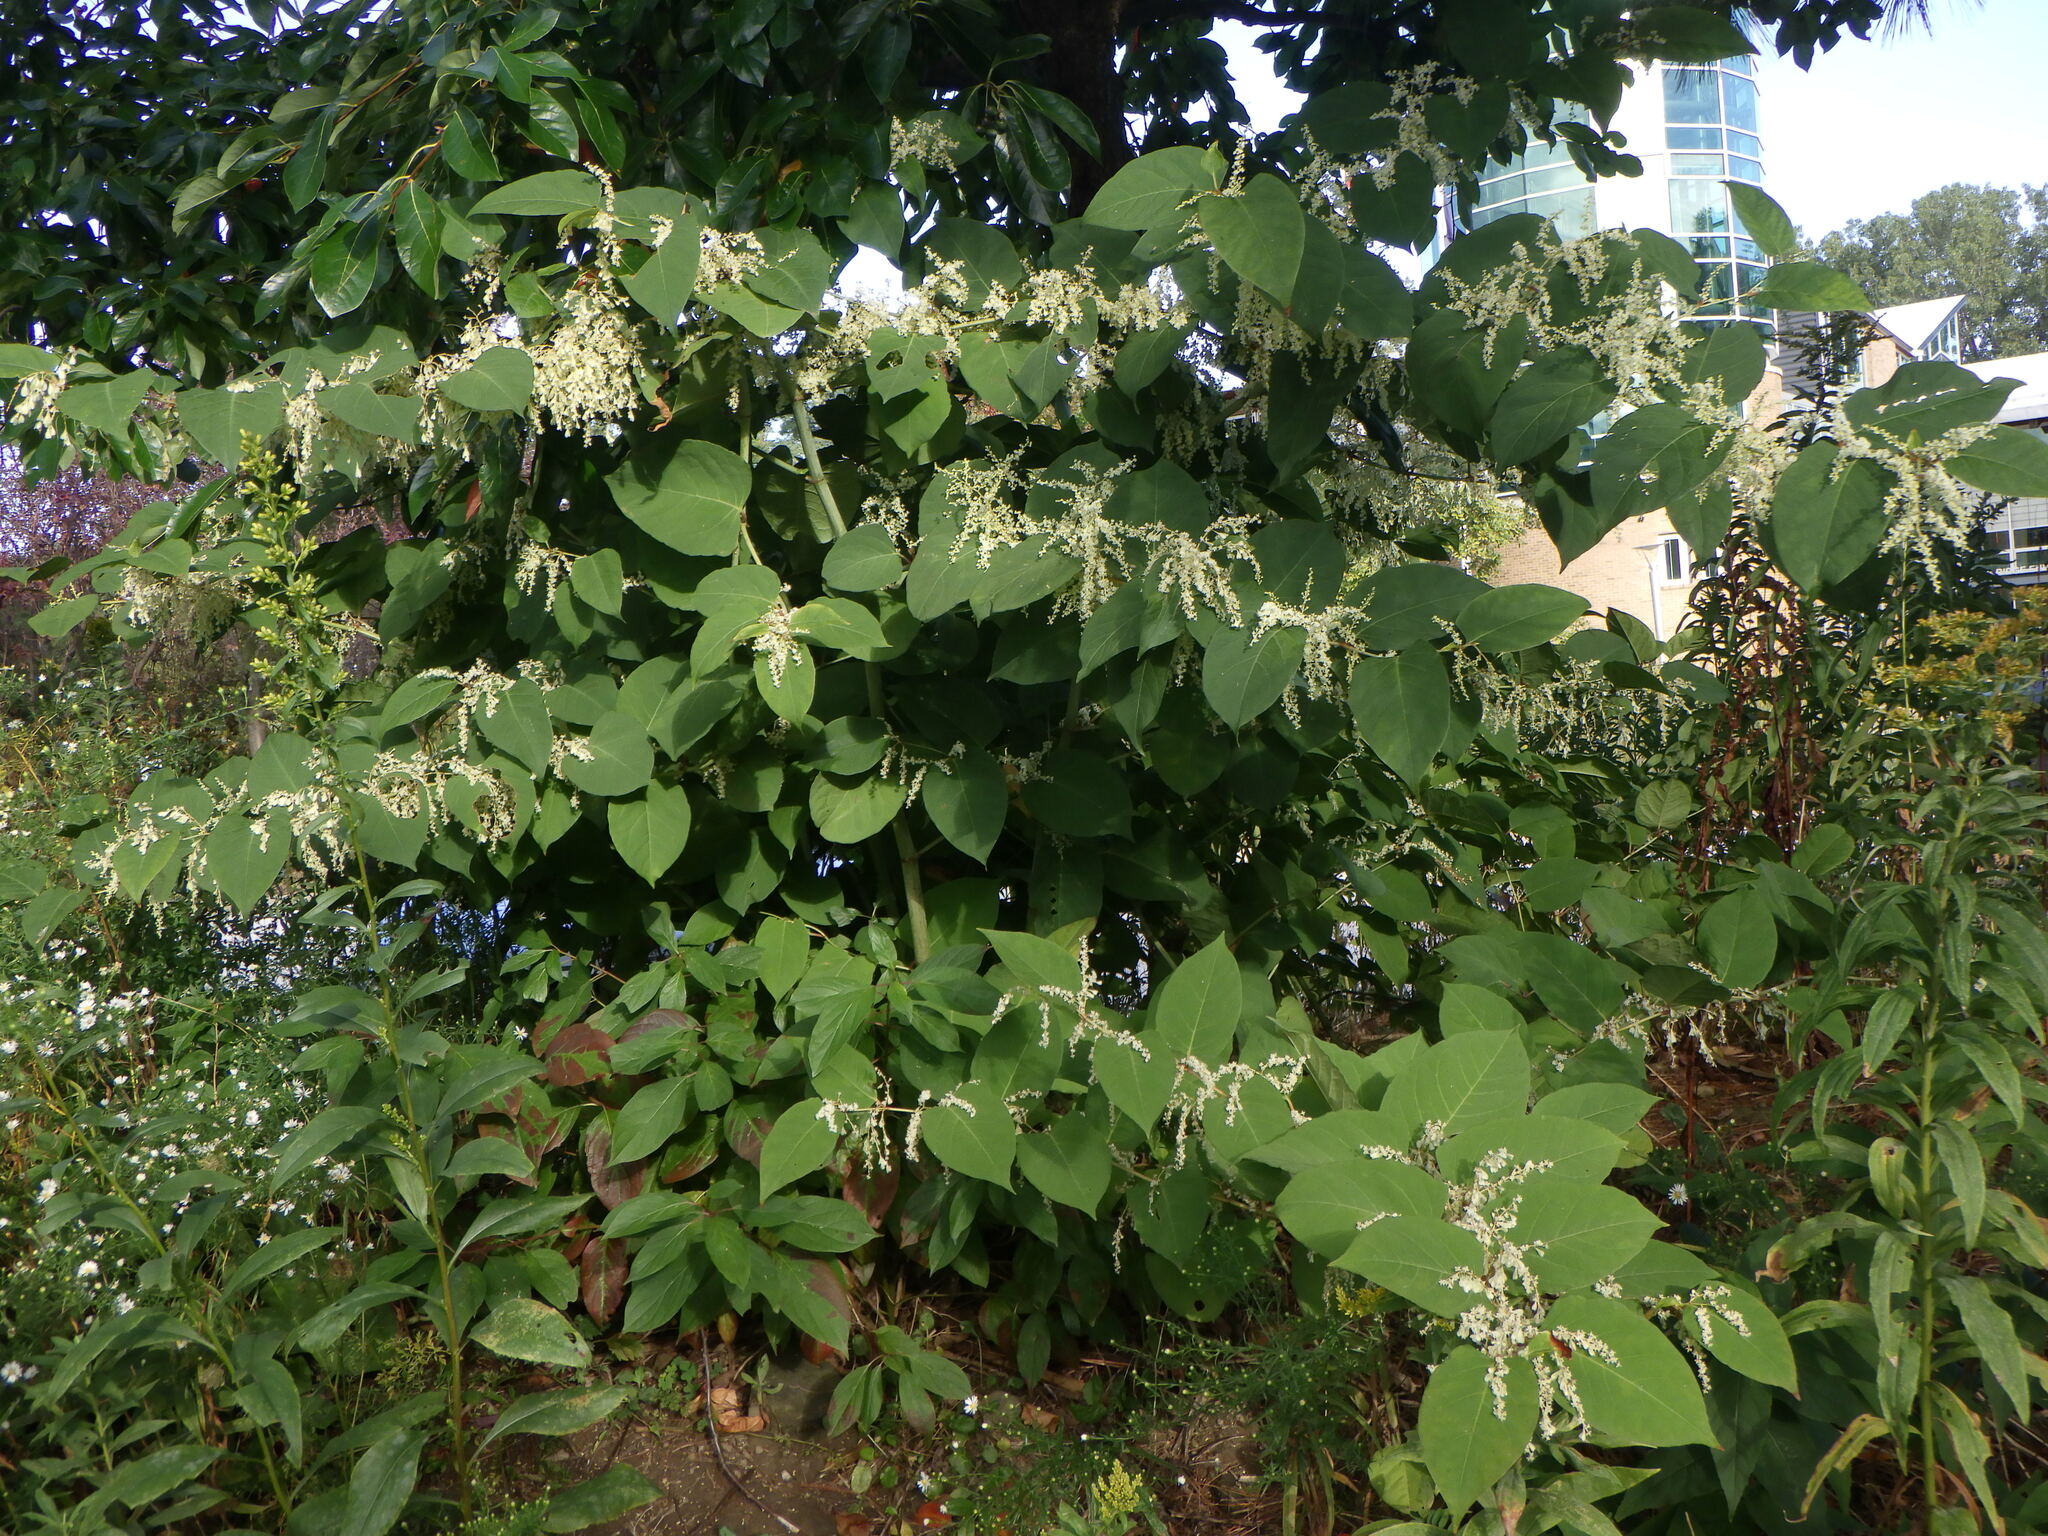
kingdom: Plantae
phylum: Tracheophyta
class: Magnoliopsida
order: Caryophyllales
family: Polygonaceae
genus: Reynoutria
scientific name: Reynoutria japonica
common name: Japanese knotweed
